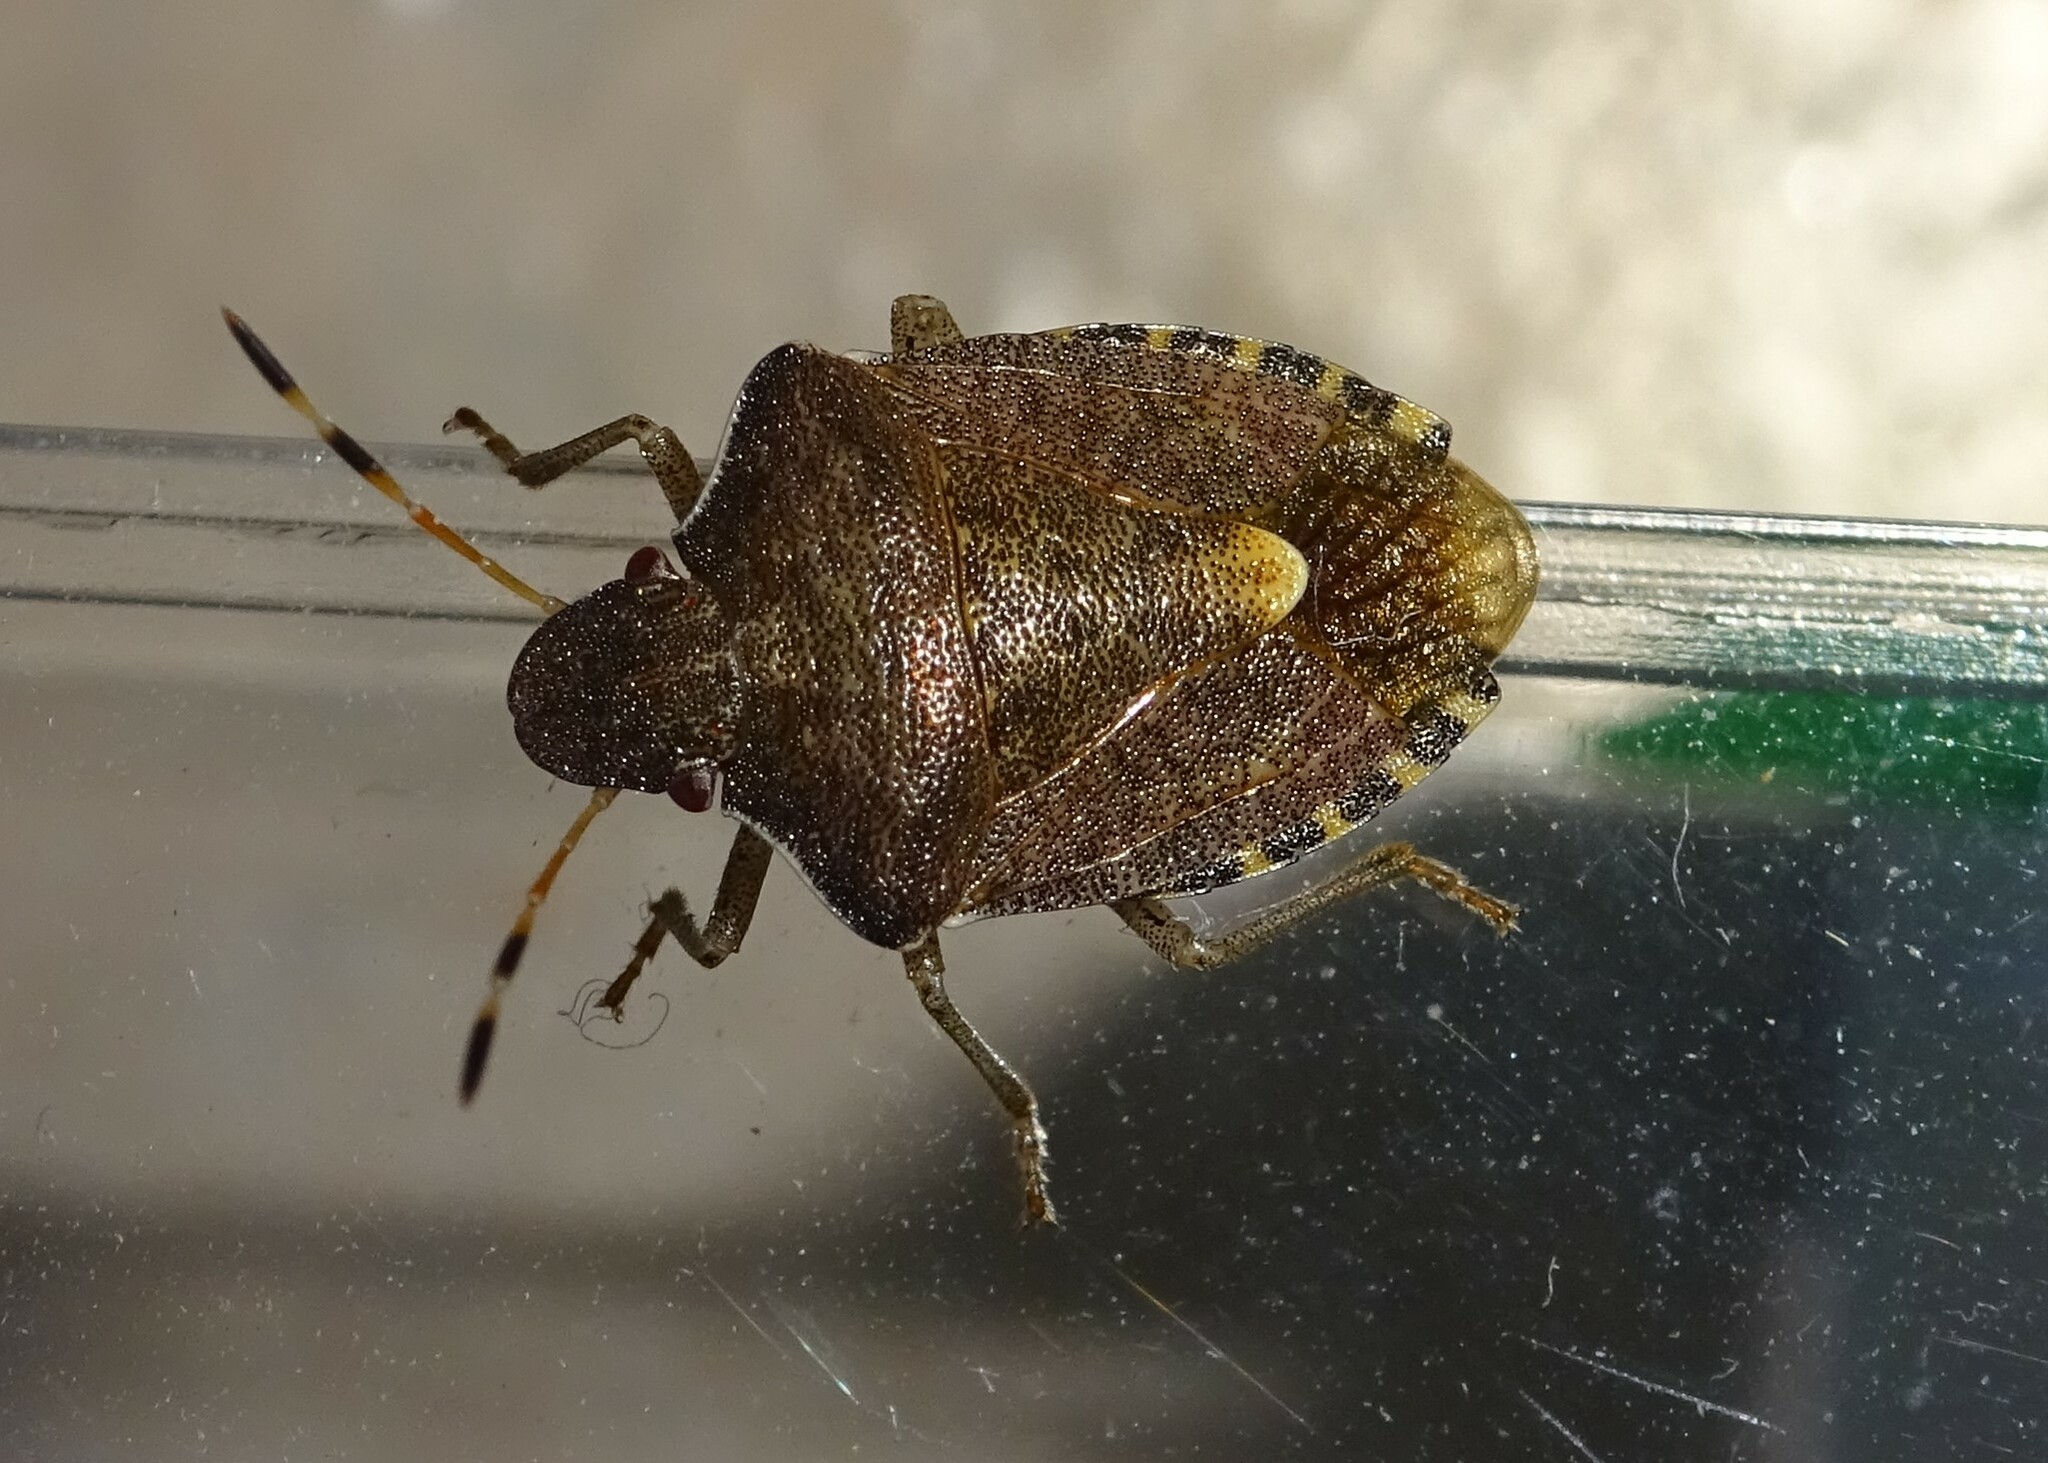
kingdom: Animalia
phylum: Arthropoda
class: Insecta
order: Hemiptera
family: Pentatomidae
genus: Holcostethus
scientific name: Holcostethus strictus
